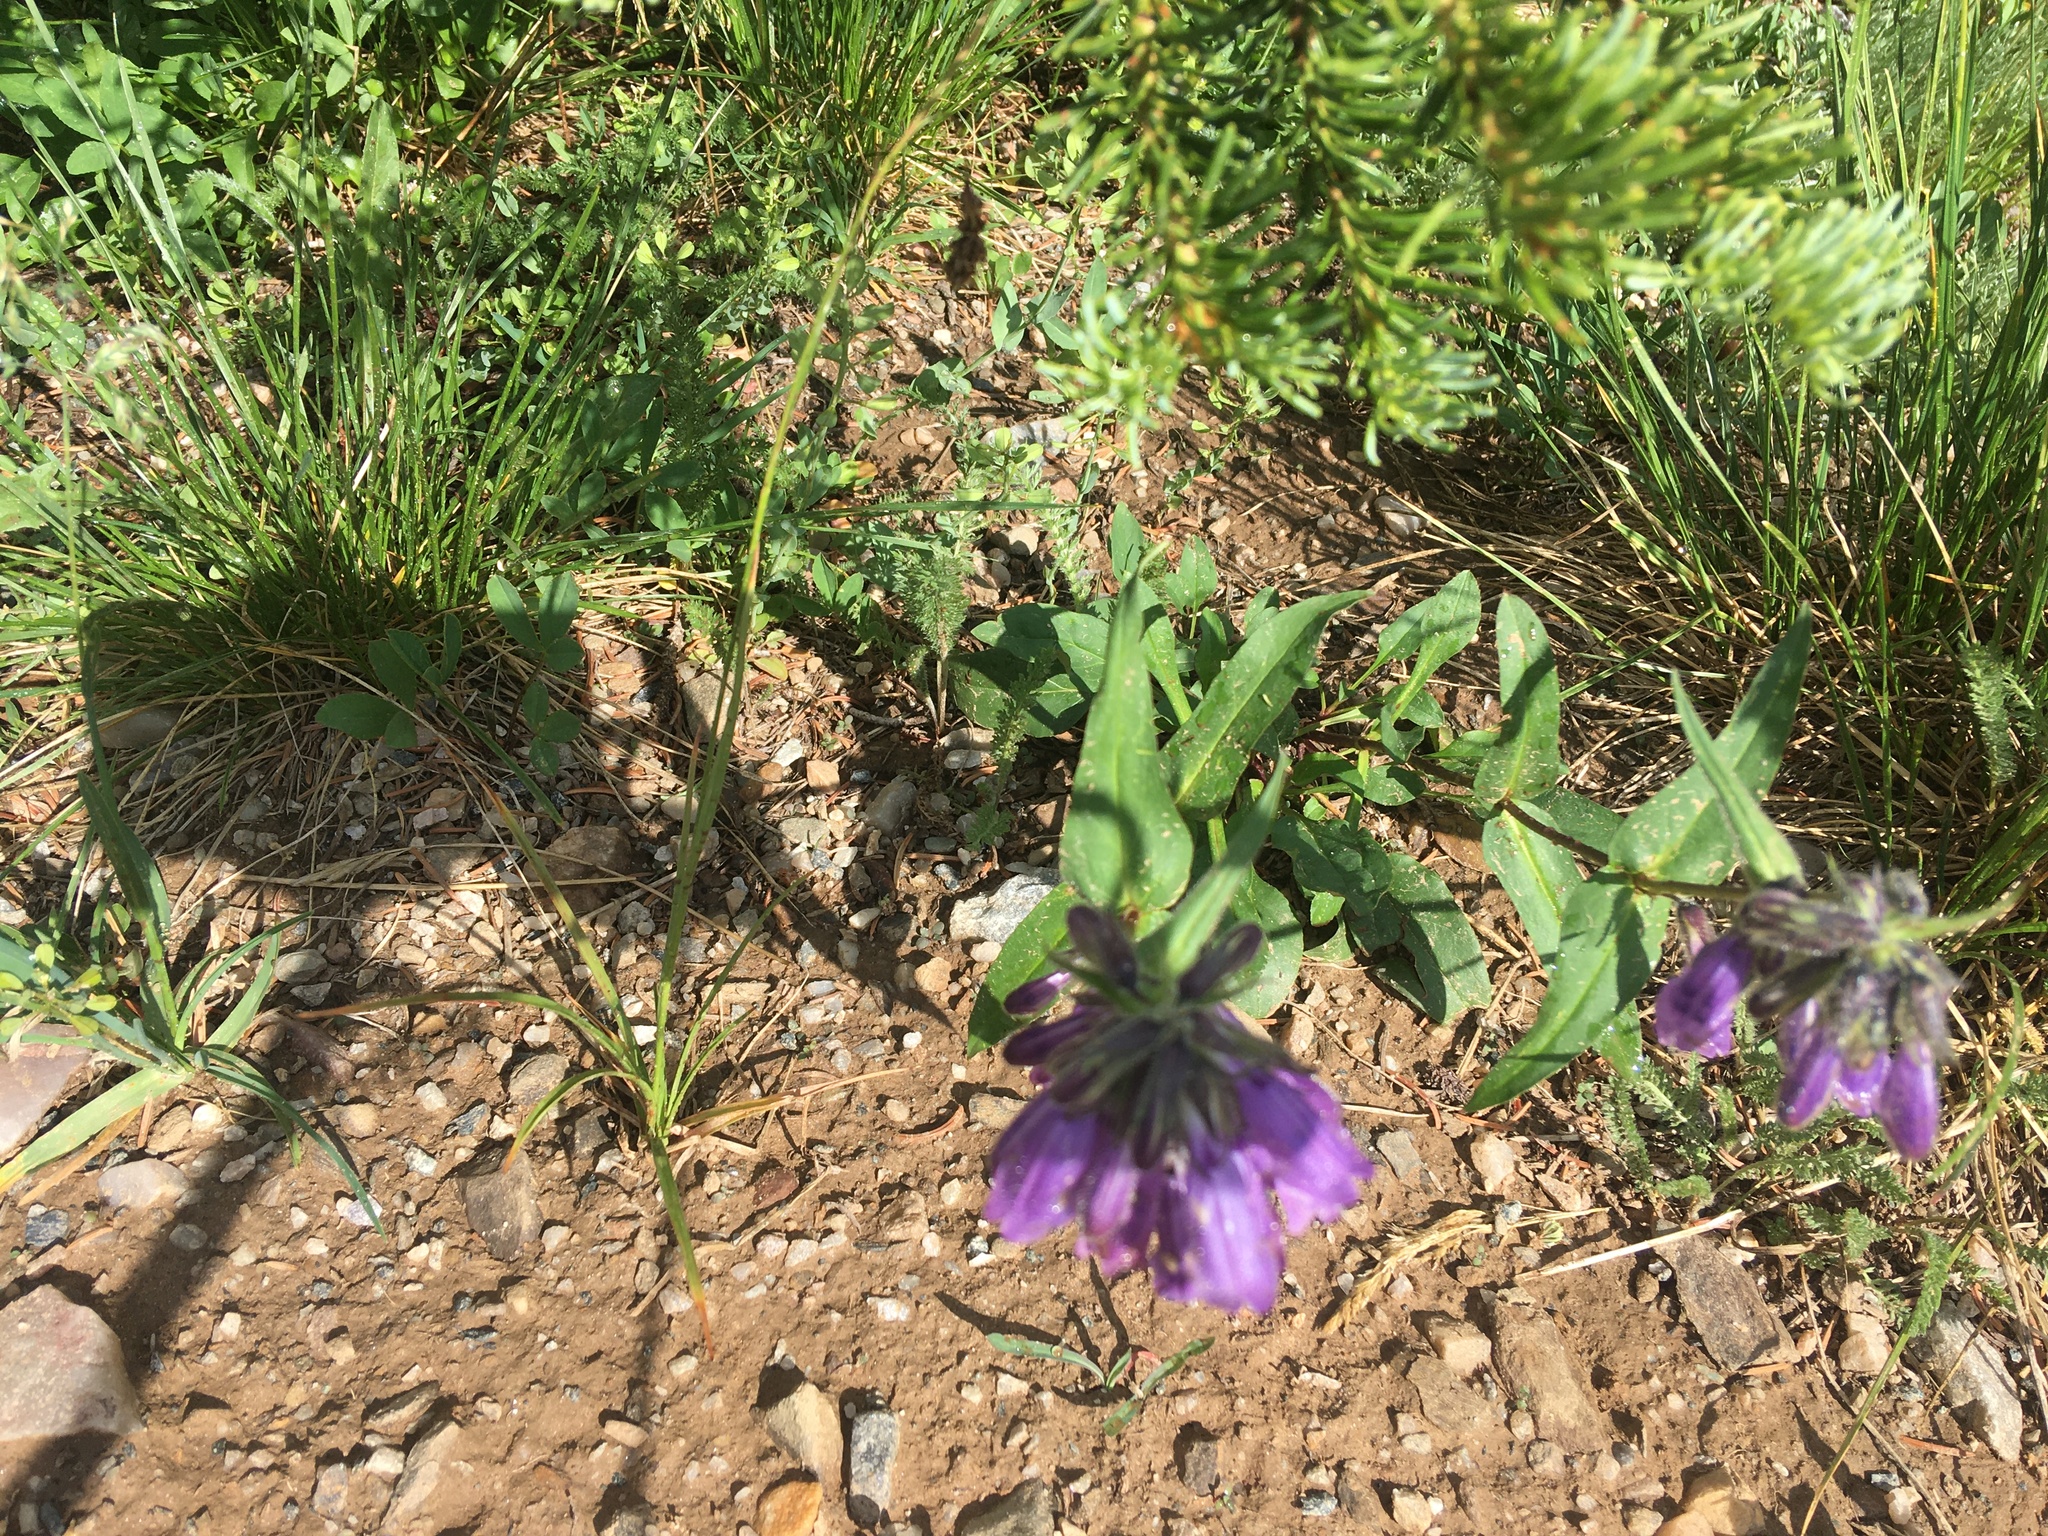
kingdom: Plantae
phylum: Tracheophyta
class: Magnoliopsida
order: Lamiales
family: Plantaginaceae
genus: Penstemon
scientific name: Penstemon whippleanus
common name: Whipple's penstemon
